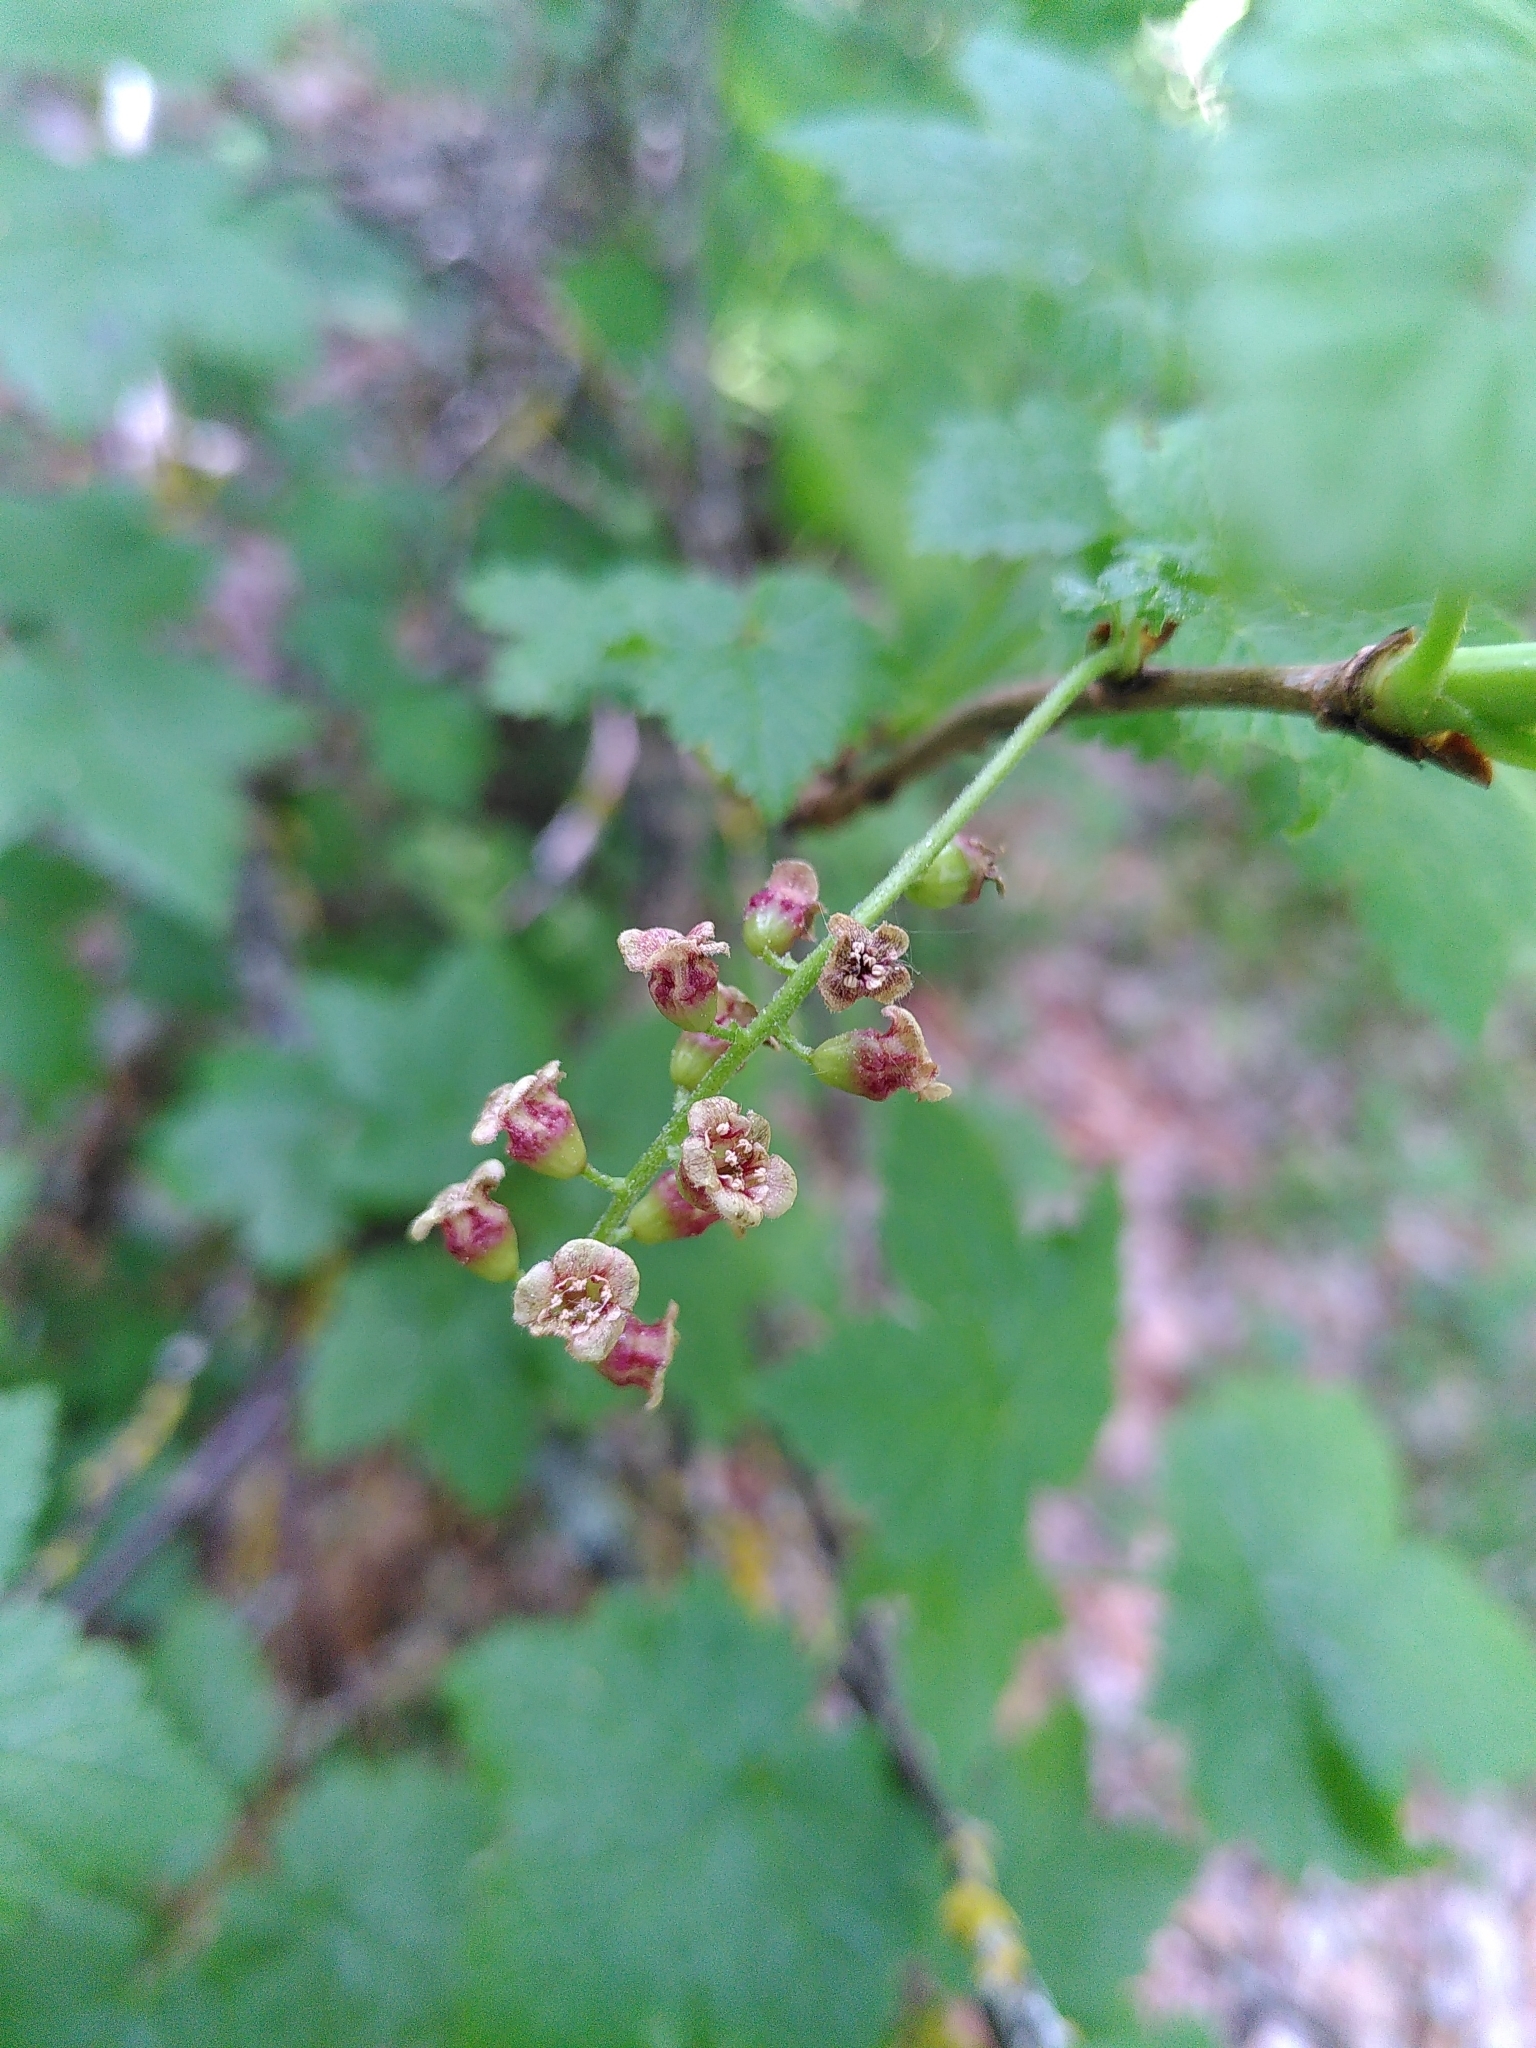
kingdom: Plantae
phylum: Tracheophyta
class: Magnoliopsida
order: Saxifragales
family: Grossulariaceae
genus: Ribes
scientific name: Ribes petraeum
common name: Rock currant
